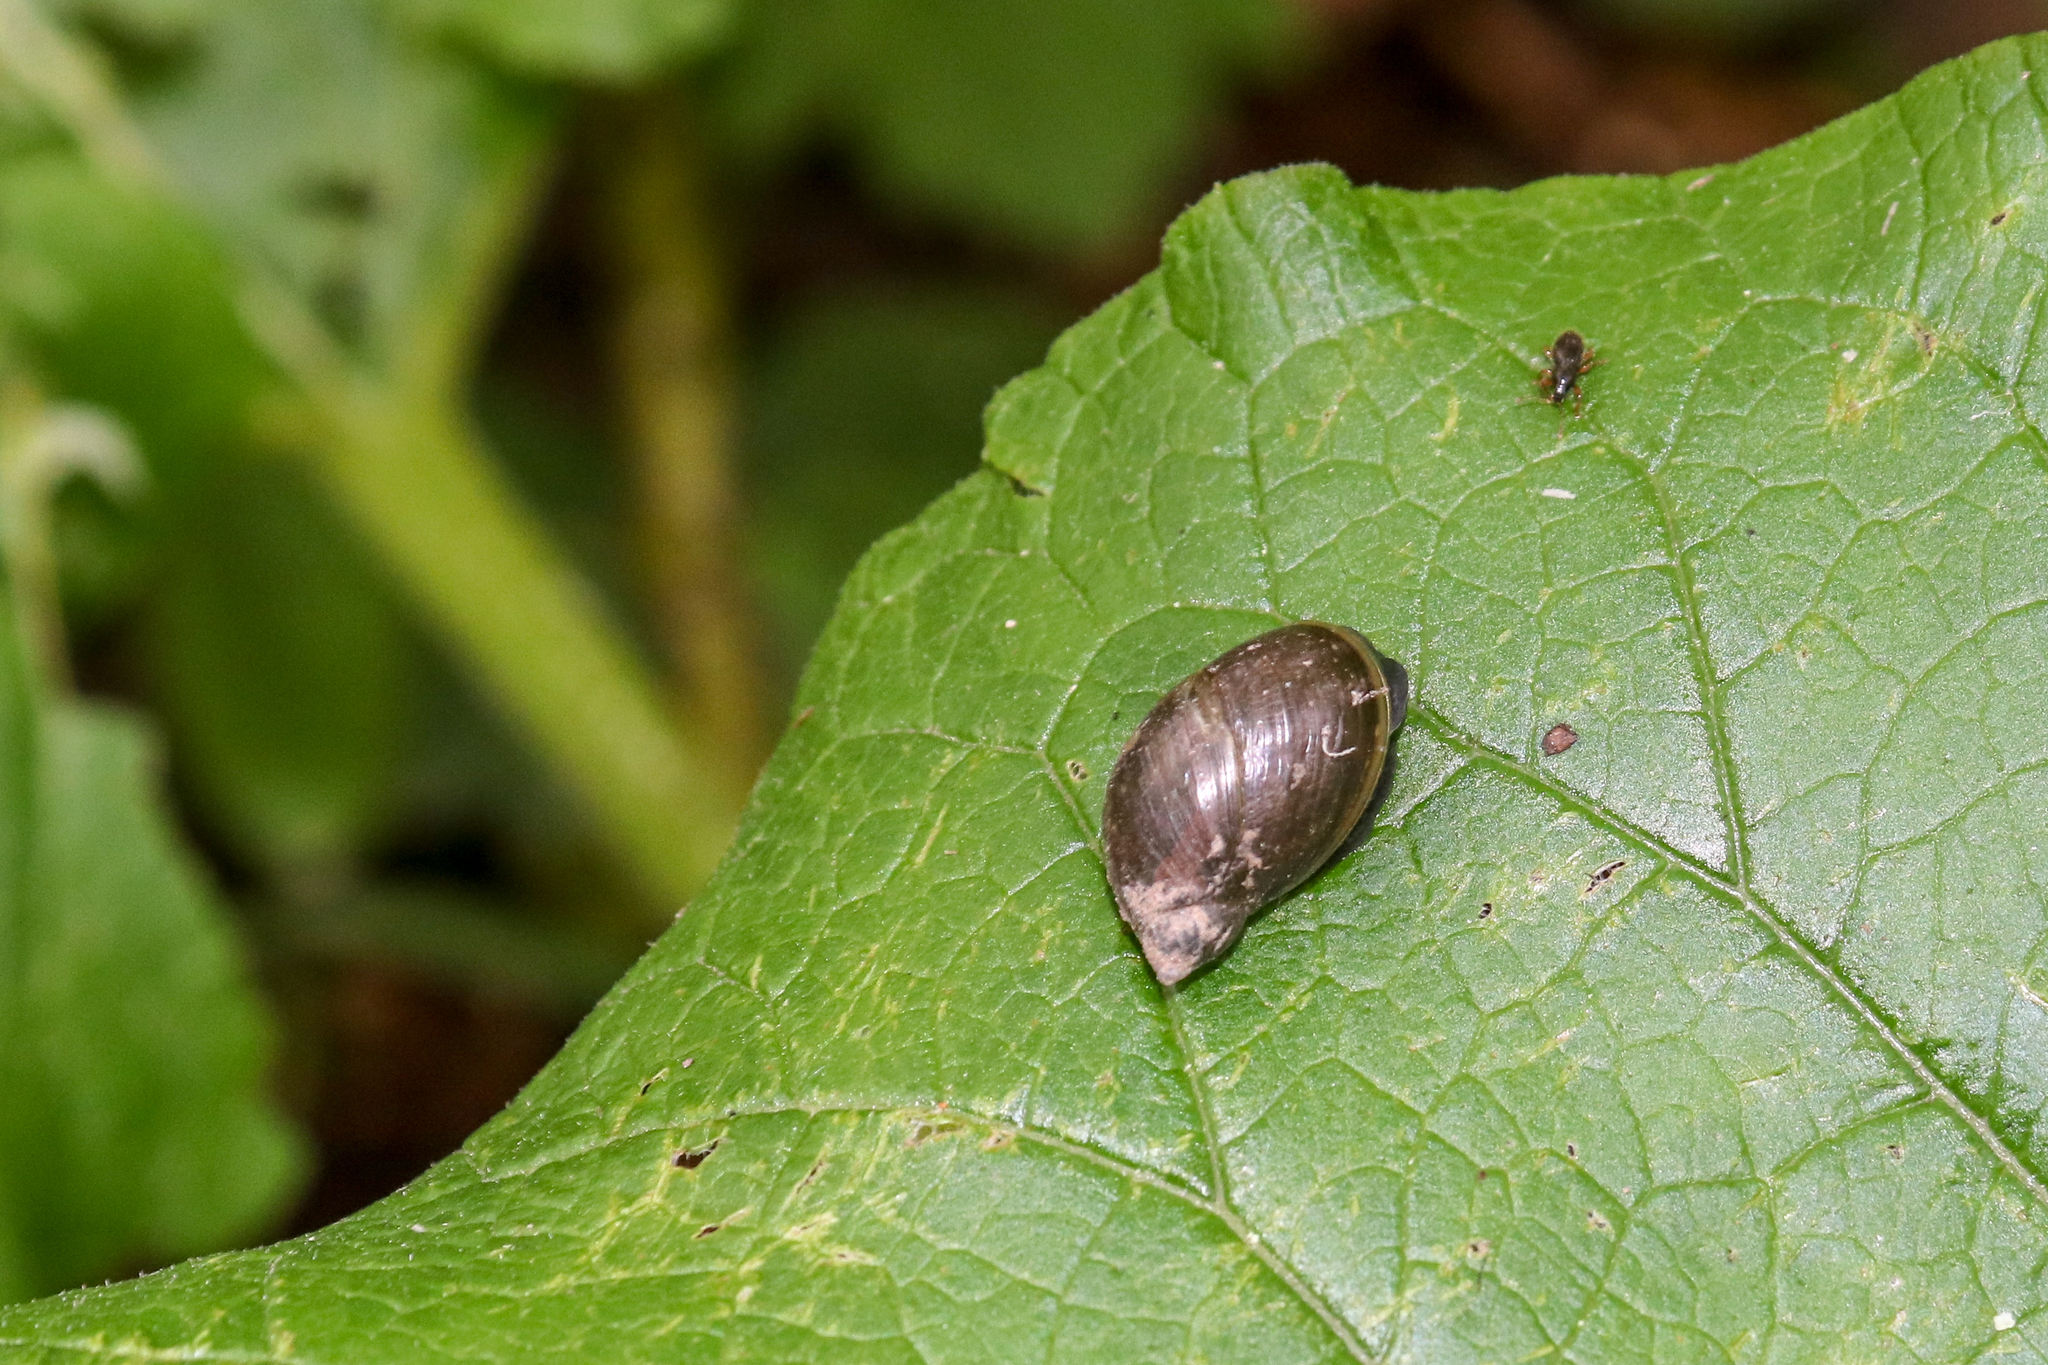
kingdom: Animalia
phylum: Mollusca
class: Gastropoda
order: Stylommatophora
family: Succineidae
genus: Succinea
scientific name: Succinea putris
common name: European ambersnail
